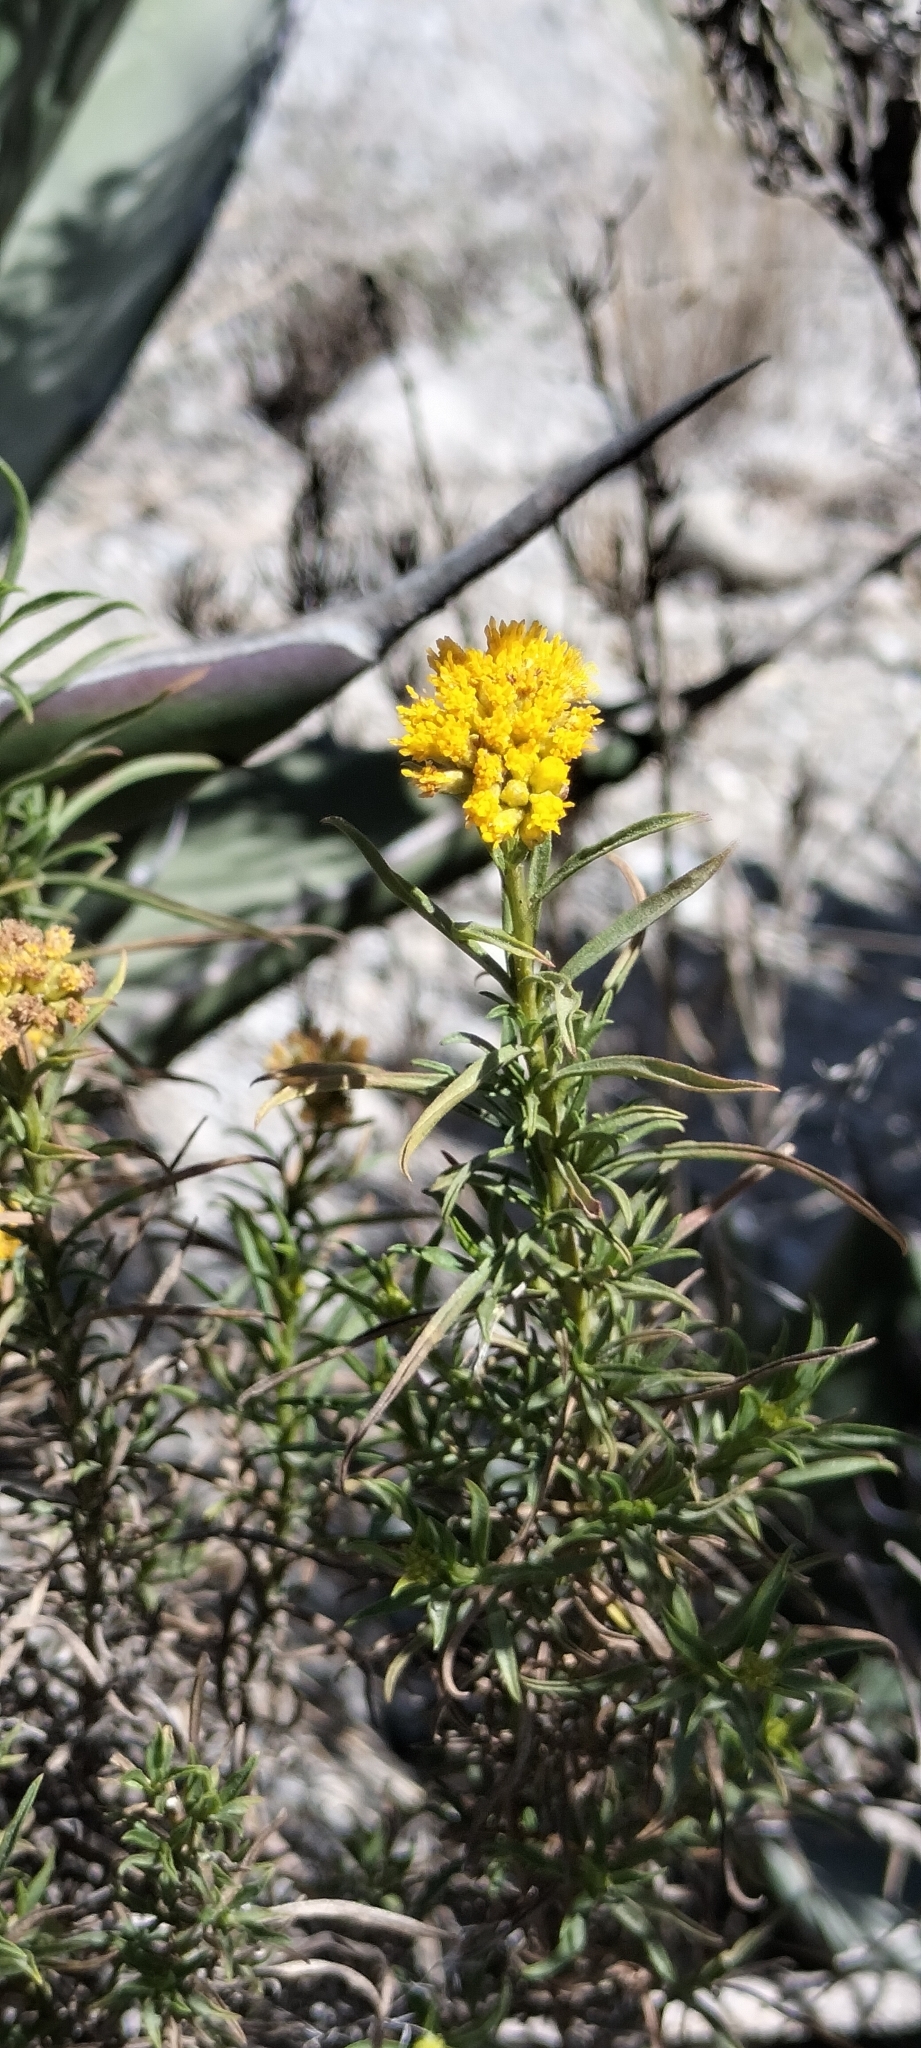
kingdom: Plantae
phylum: Tracheophyta
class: Magnoliopsida
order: Asterales
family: Asteraceae
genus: Gymnosperma
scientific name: Gymnosperma glutinosum
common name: Gumhead
